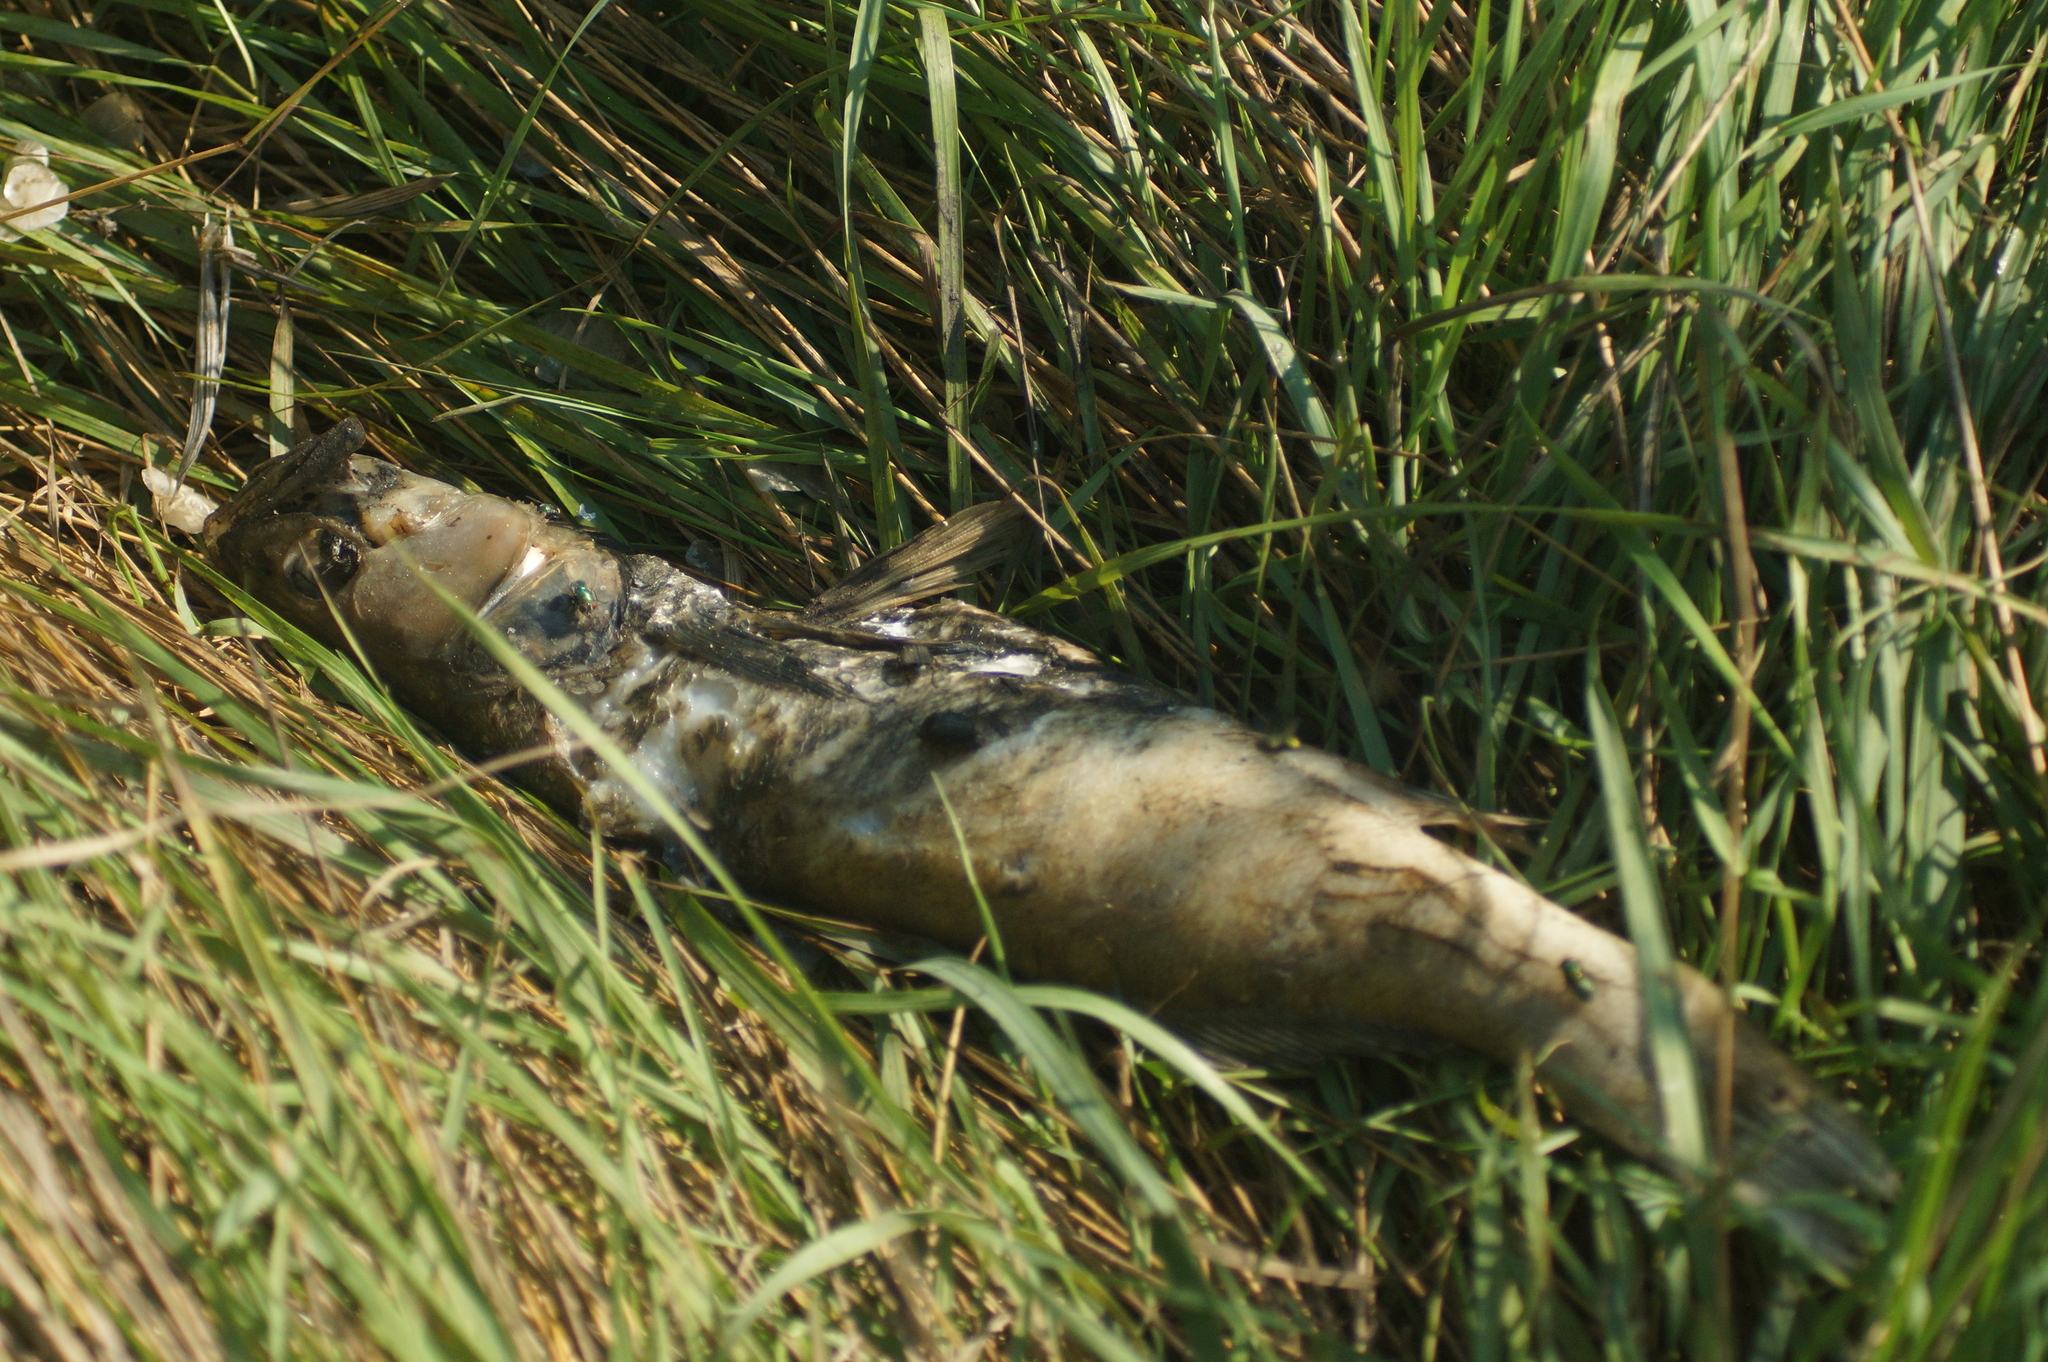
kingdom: Animalia
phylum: Chordata
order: Perciformes
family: Percidae
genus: Sander
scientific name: Sander lucioperca
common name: Pikeperch
